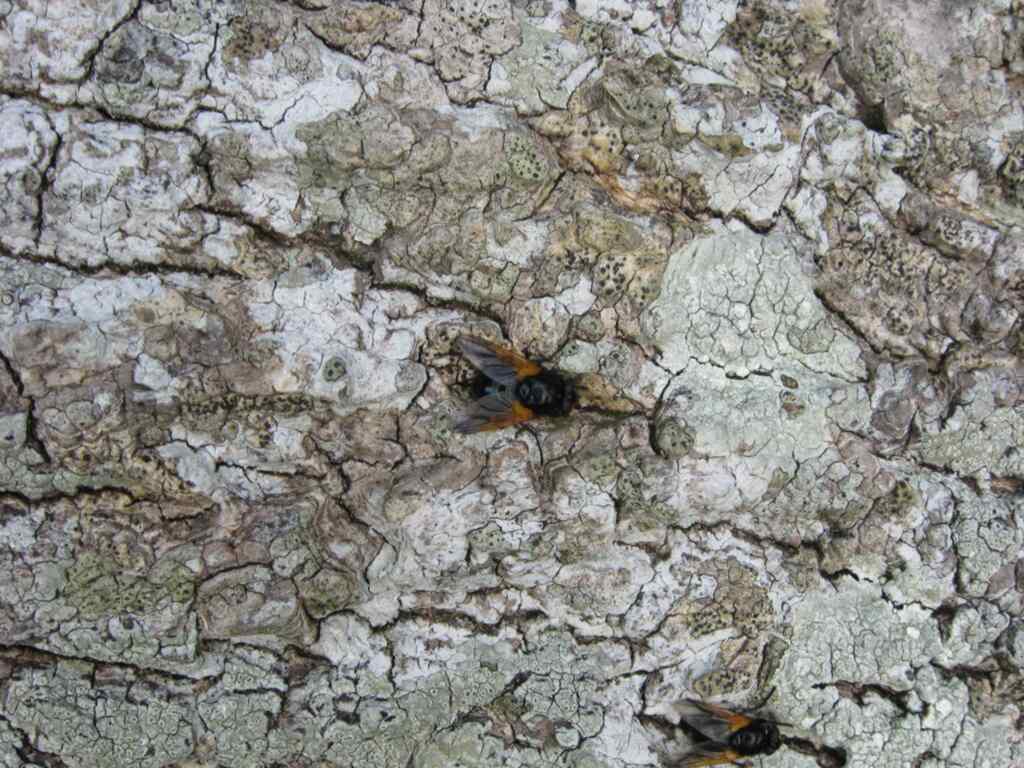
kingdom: Animalia
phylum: Arthropoda
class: Insecta
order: Diptera
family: Muscidae
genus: Mesembrina
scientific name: Mesembrina meridiana
